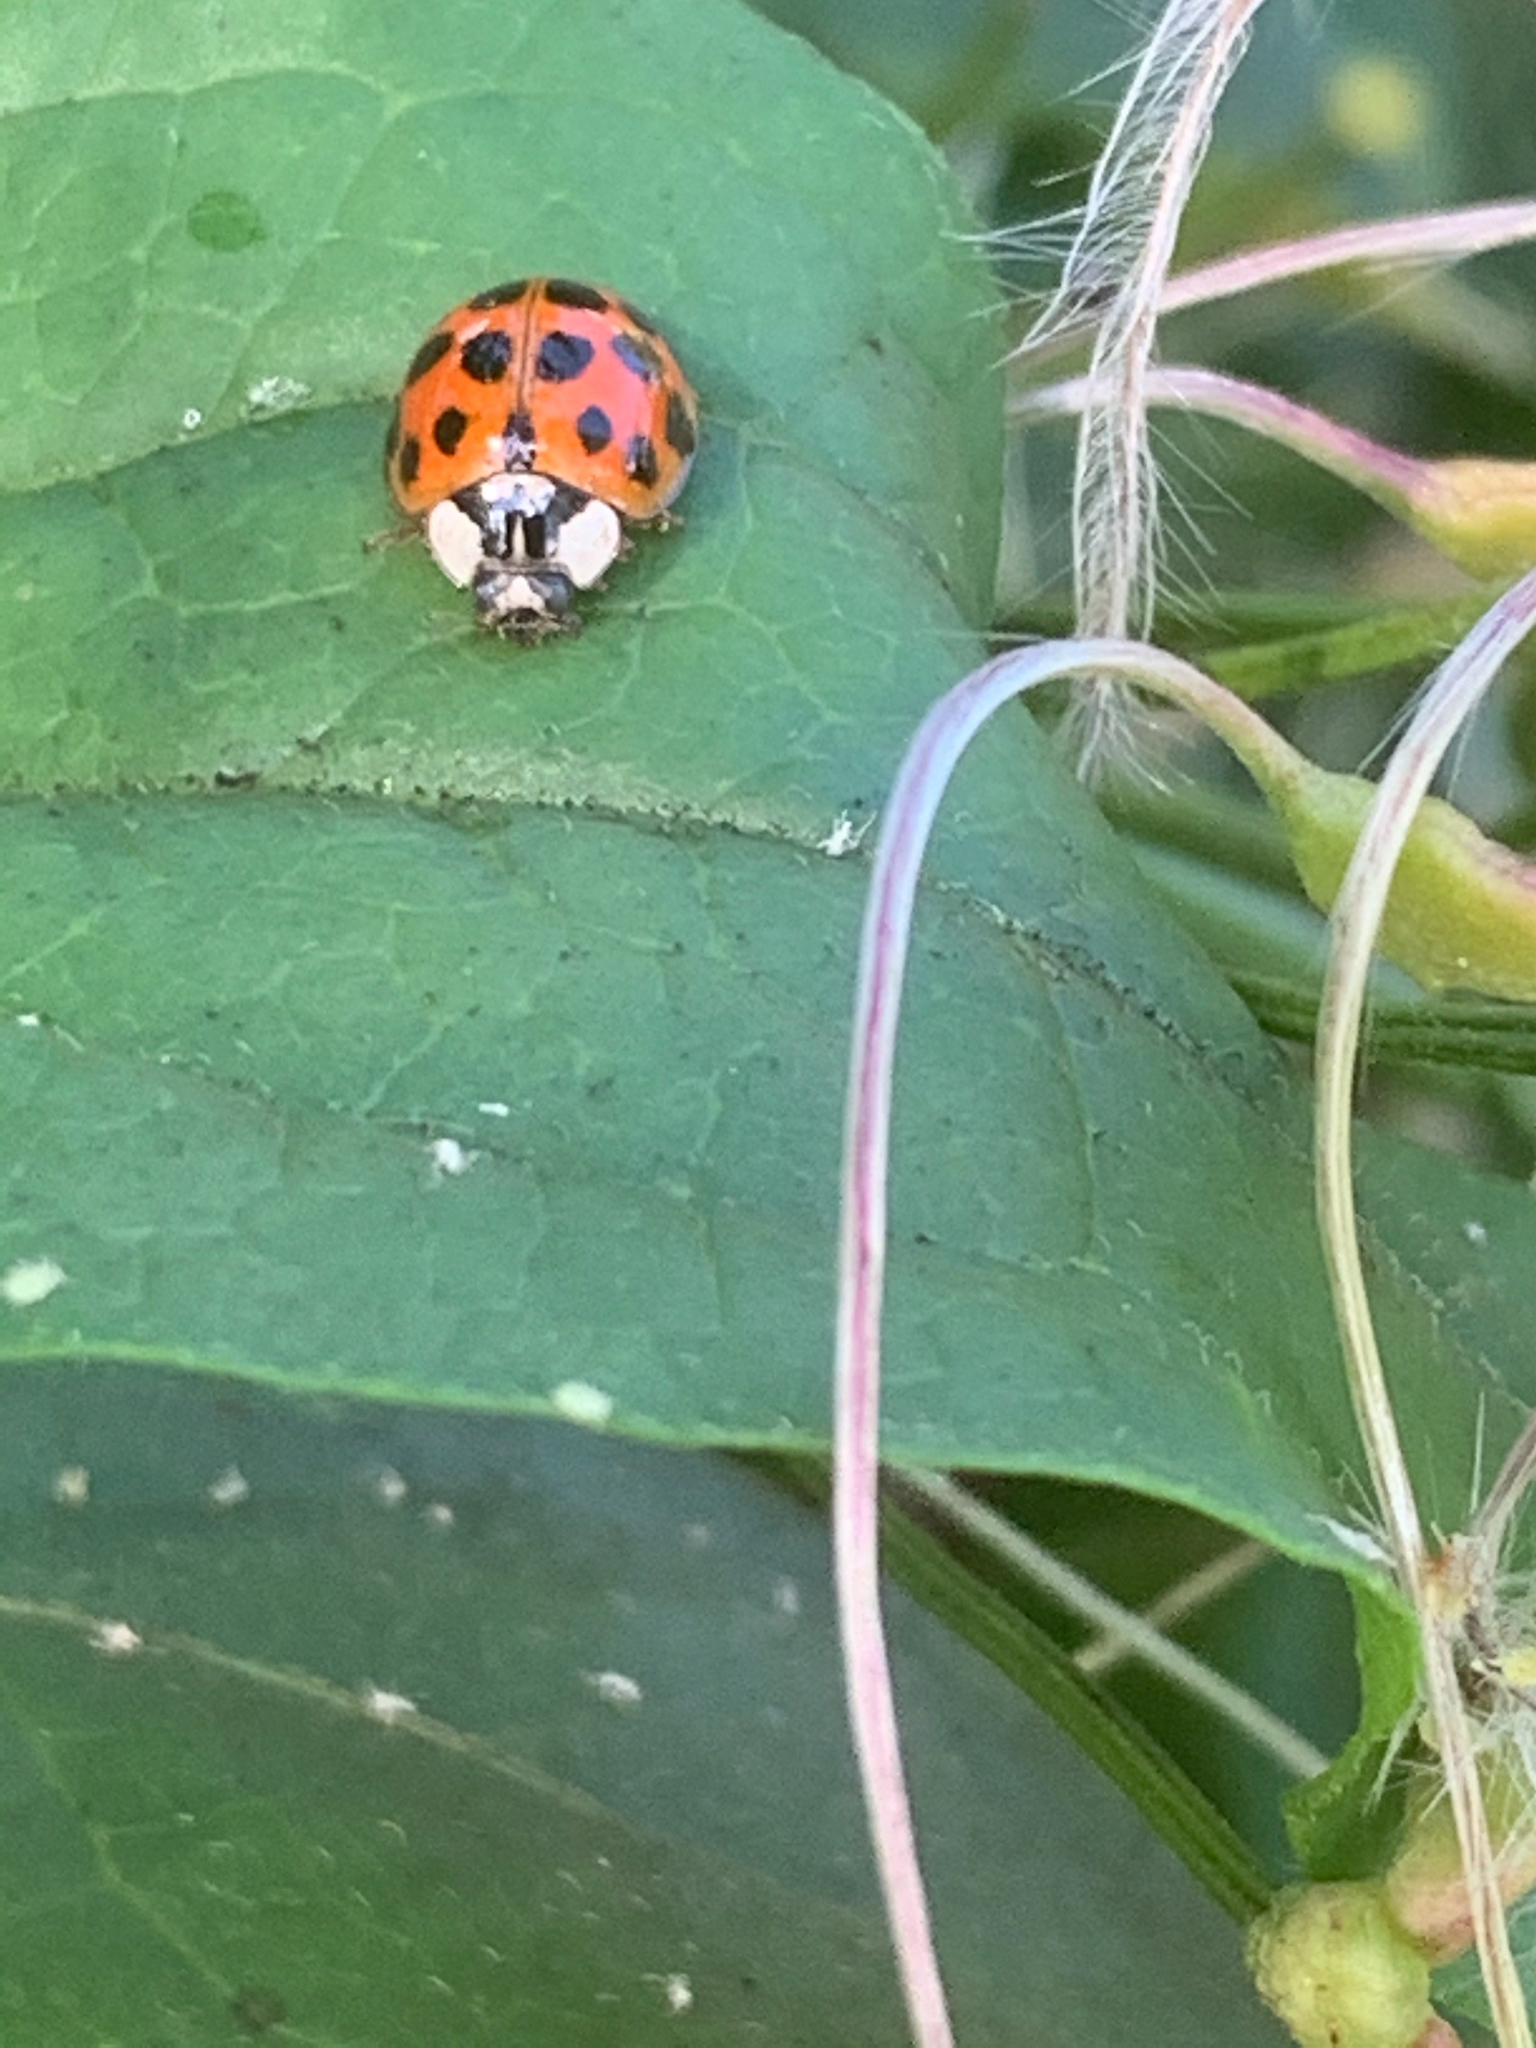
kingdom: Animalia
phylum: Arthropoda
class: Insecta
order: Coleoptera
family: Coccinellidae
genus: Harmonia
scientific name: Harmonia axyridis
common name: Harlequin ladybird
